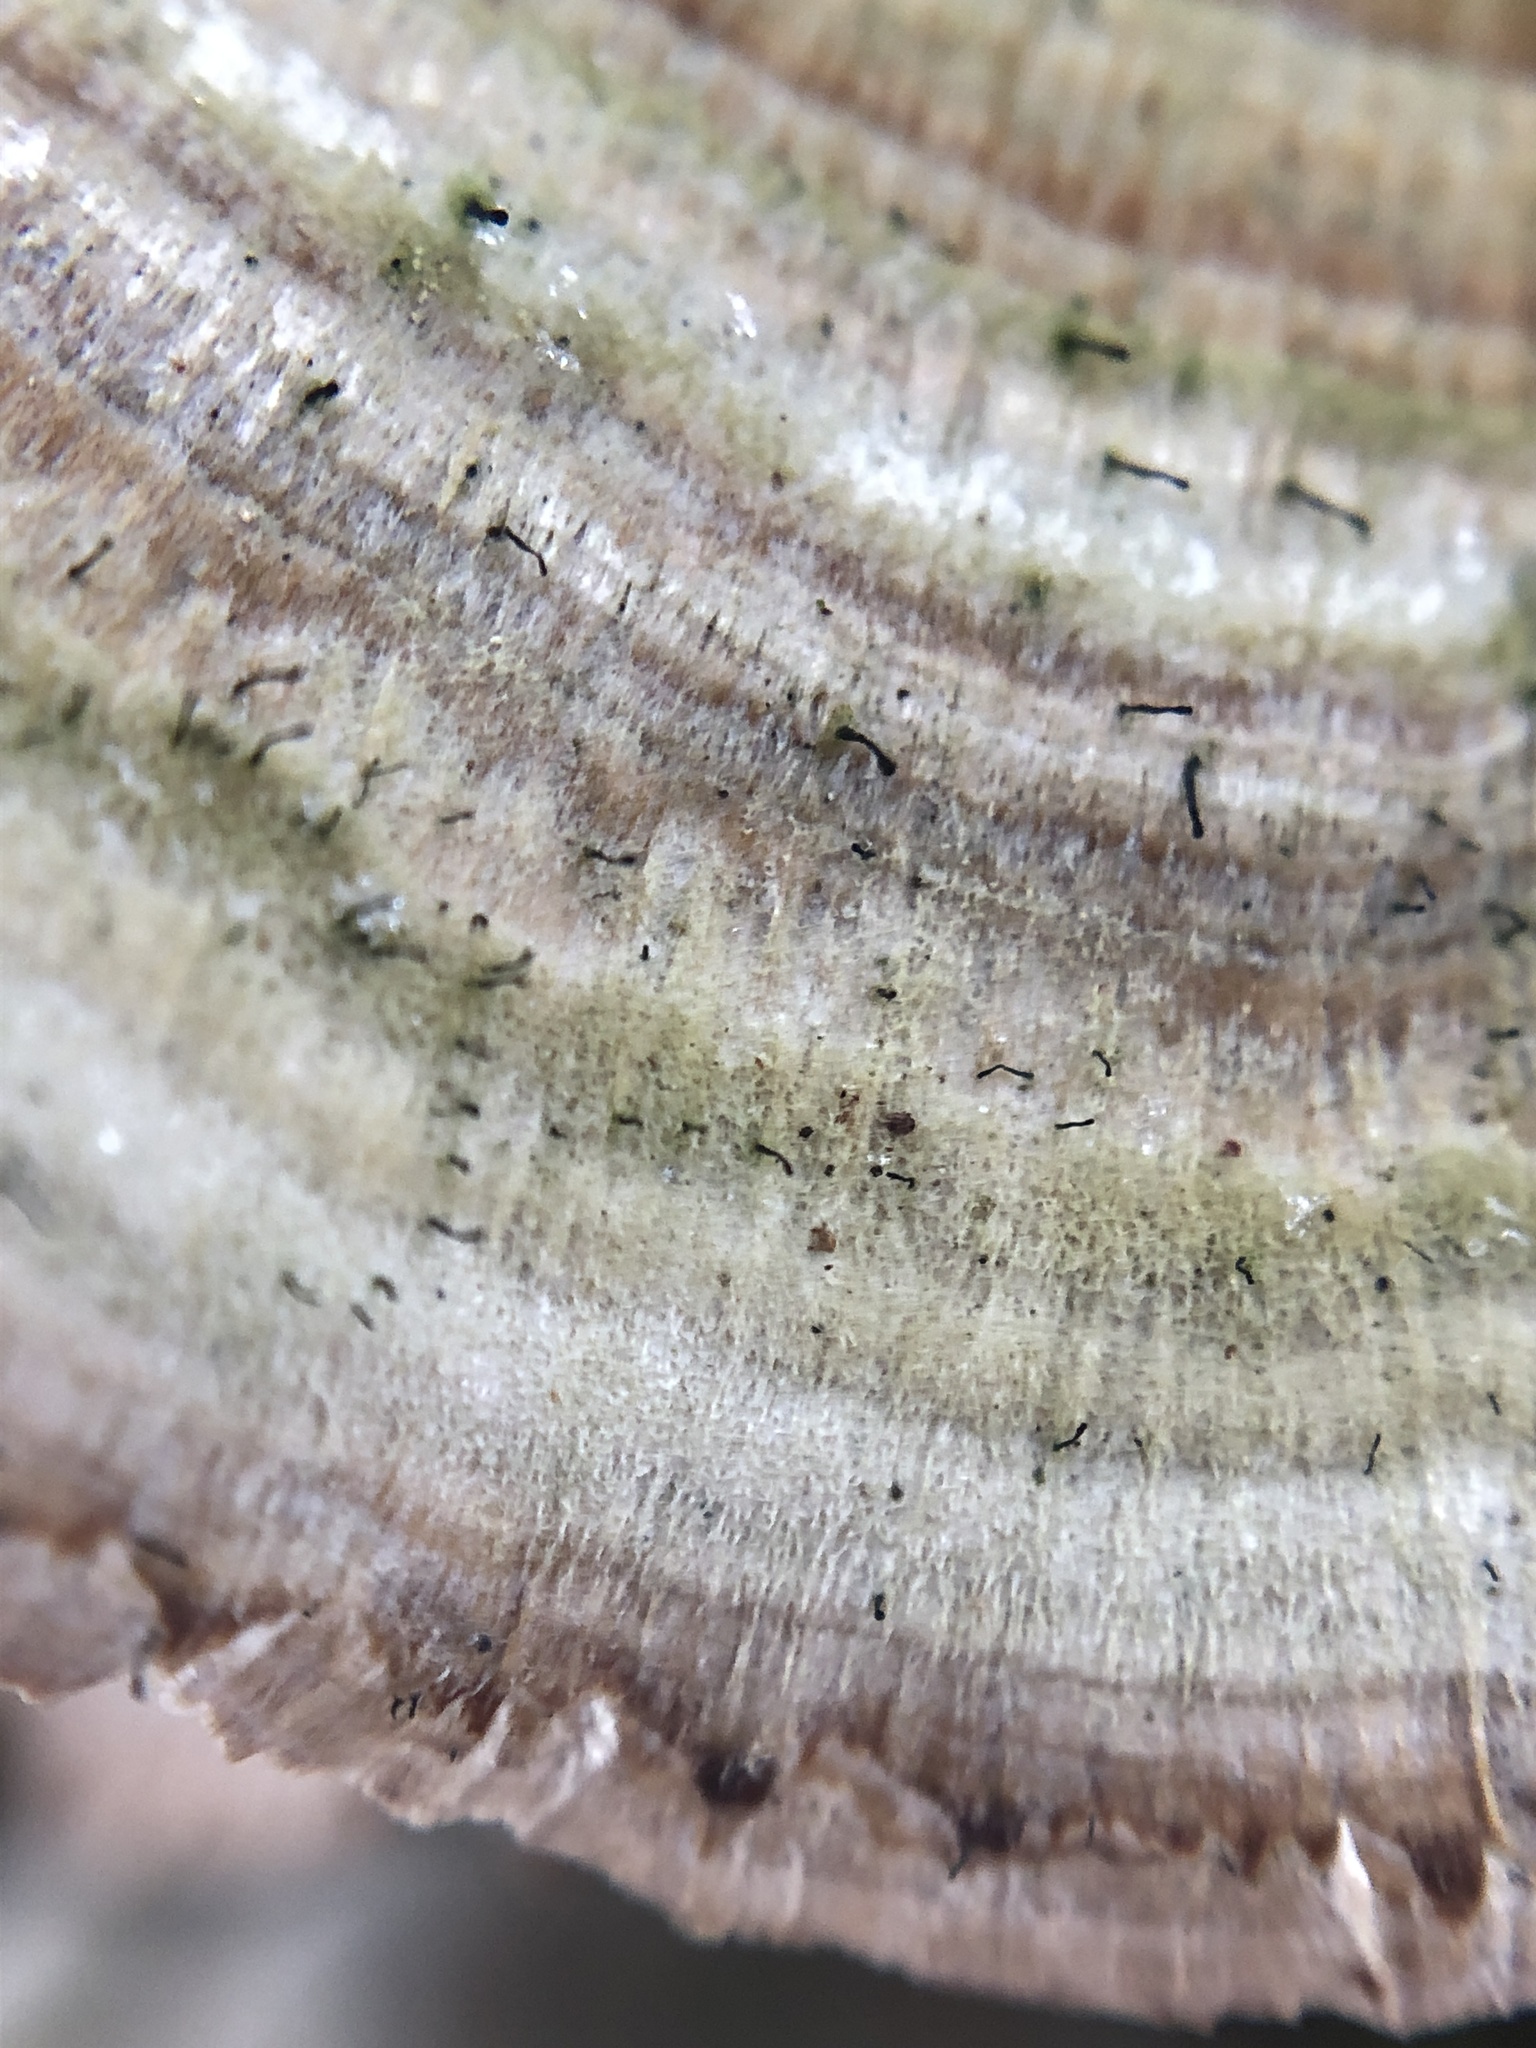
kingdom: Fungi
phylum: Basidiomycota
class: Agaricomycetes
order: Hymenochaetales
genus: Trichaptum
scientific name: Trichaptum biforme
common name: Violet-toothed polypore
